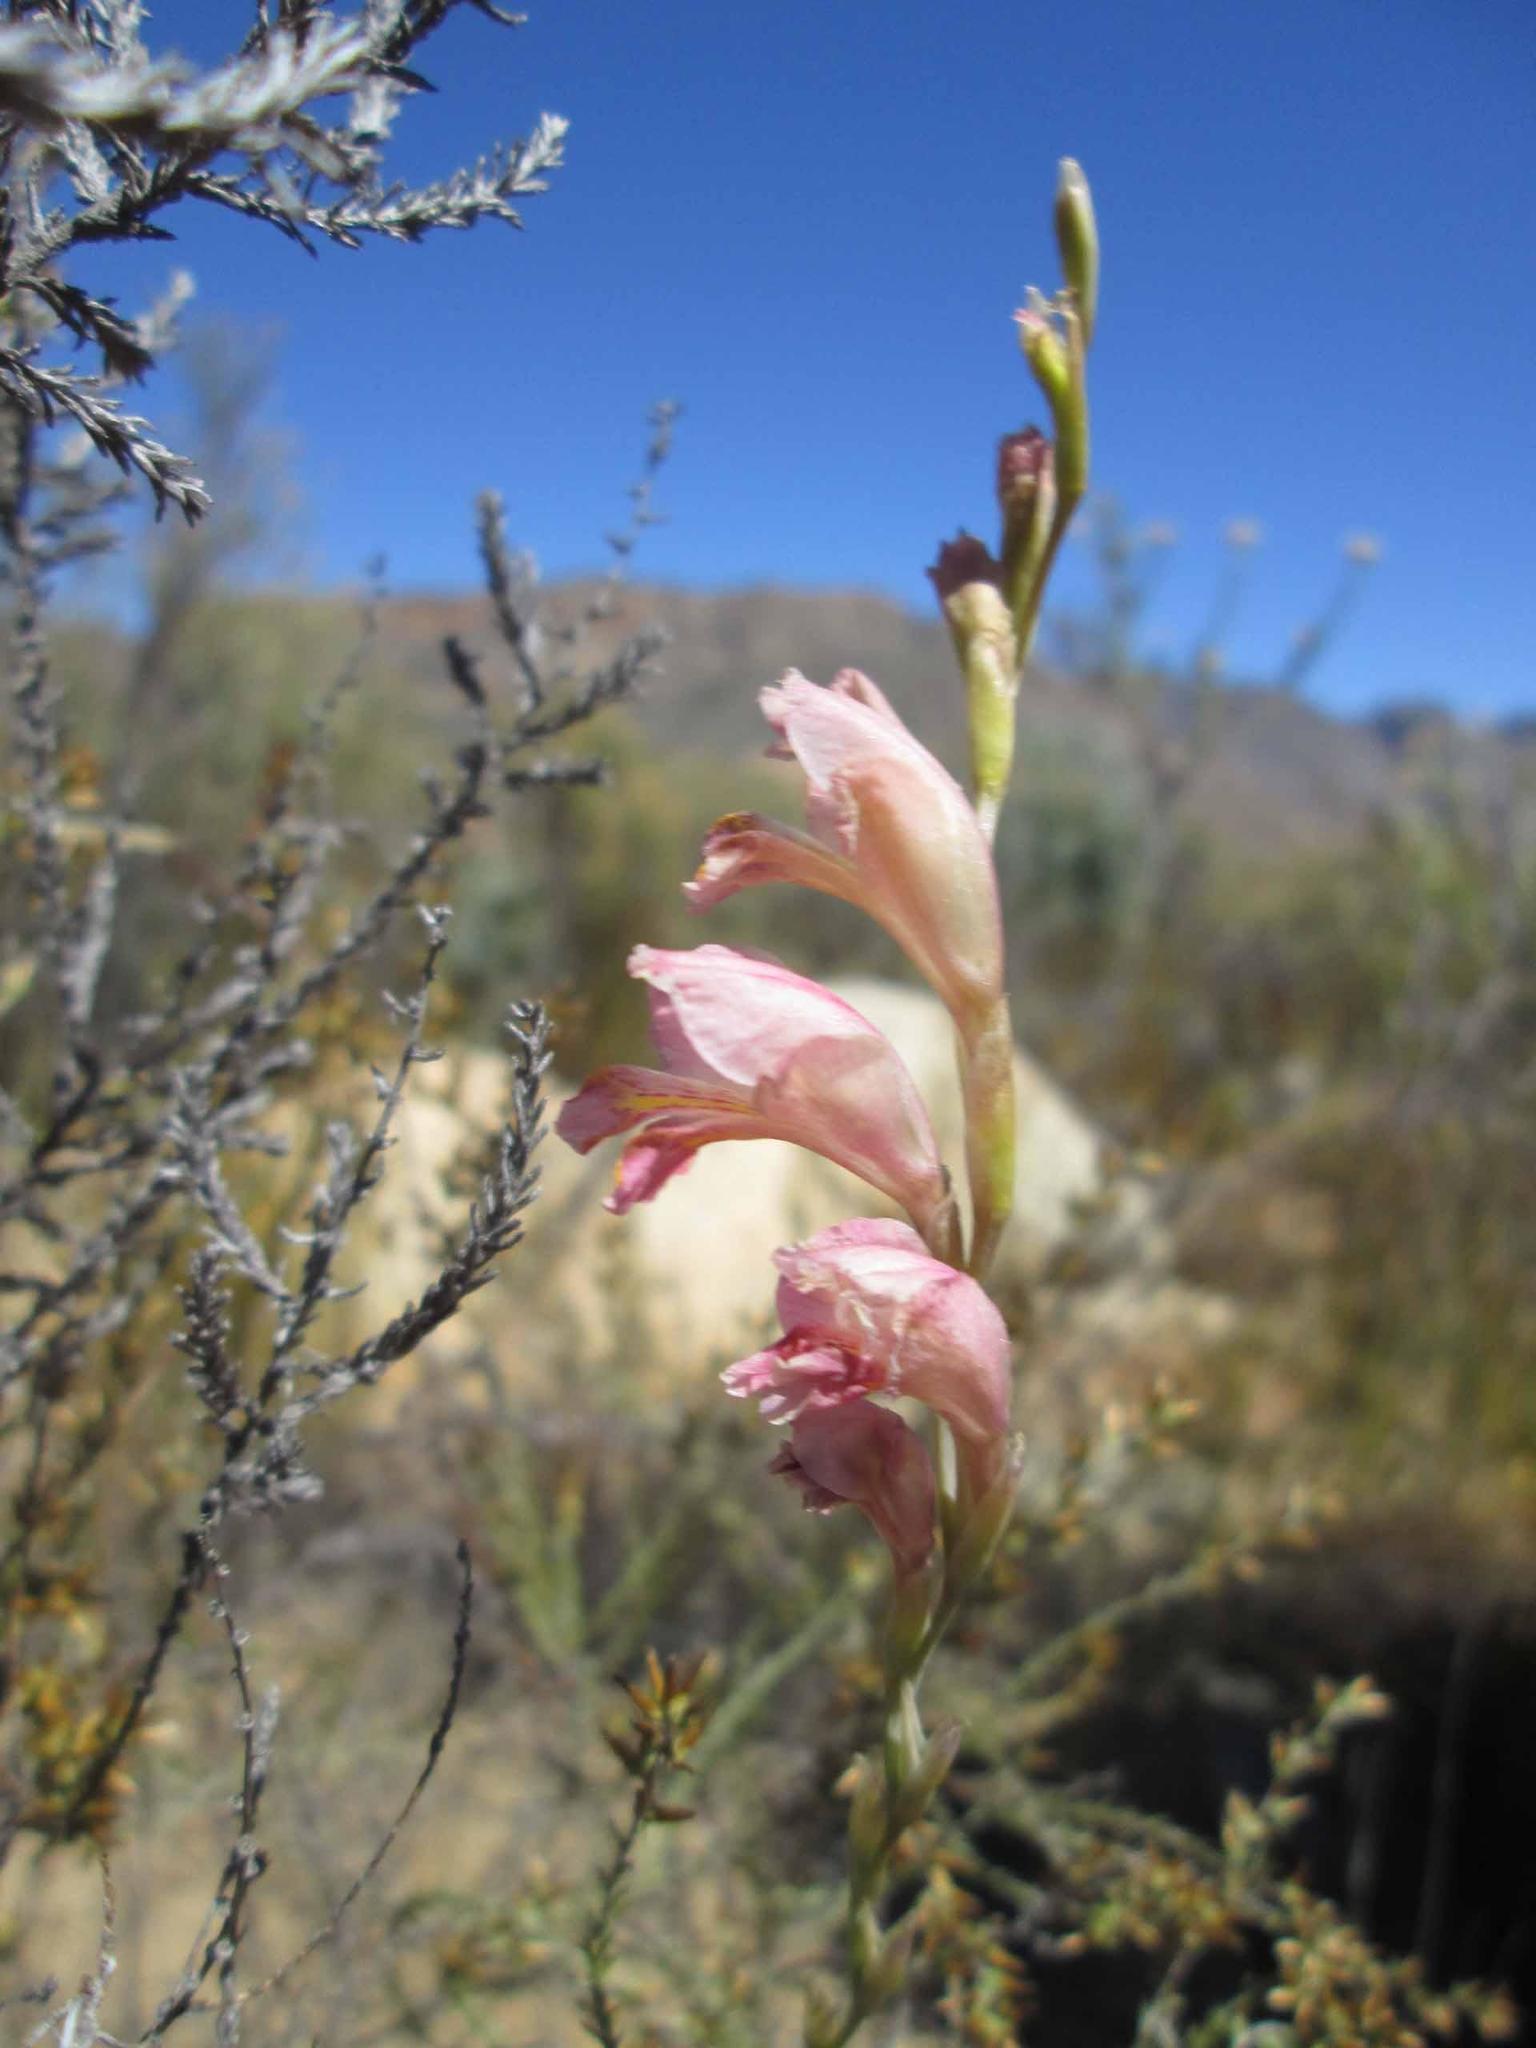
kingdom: Plantae
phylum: Tracheophyta
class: Liliopsida
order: Asparagales
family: Iridaceae
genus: Gladiolus
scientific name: Gladiolus brevifolius
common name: March pypie
